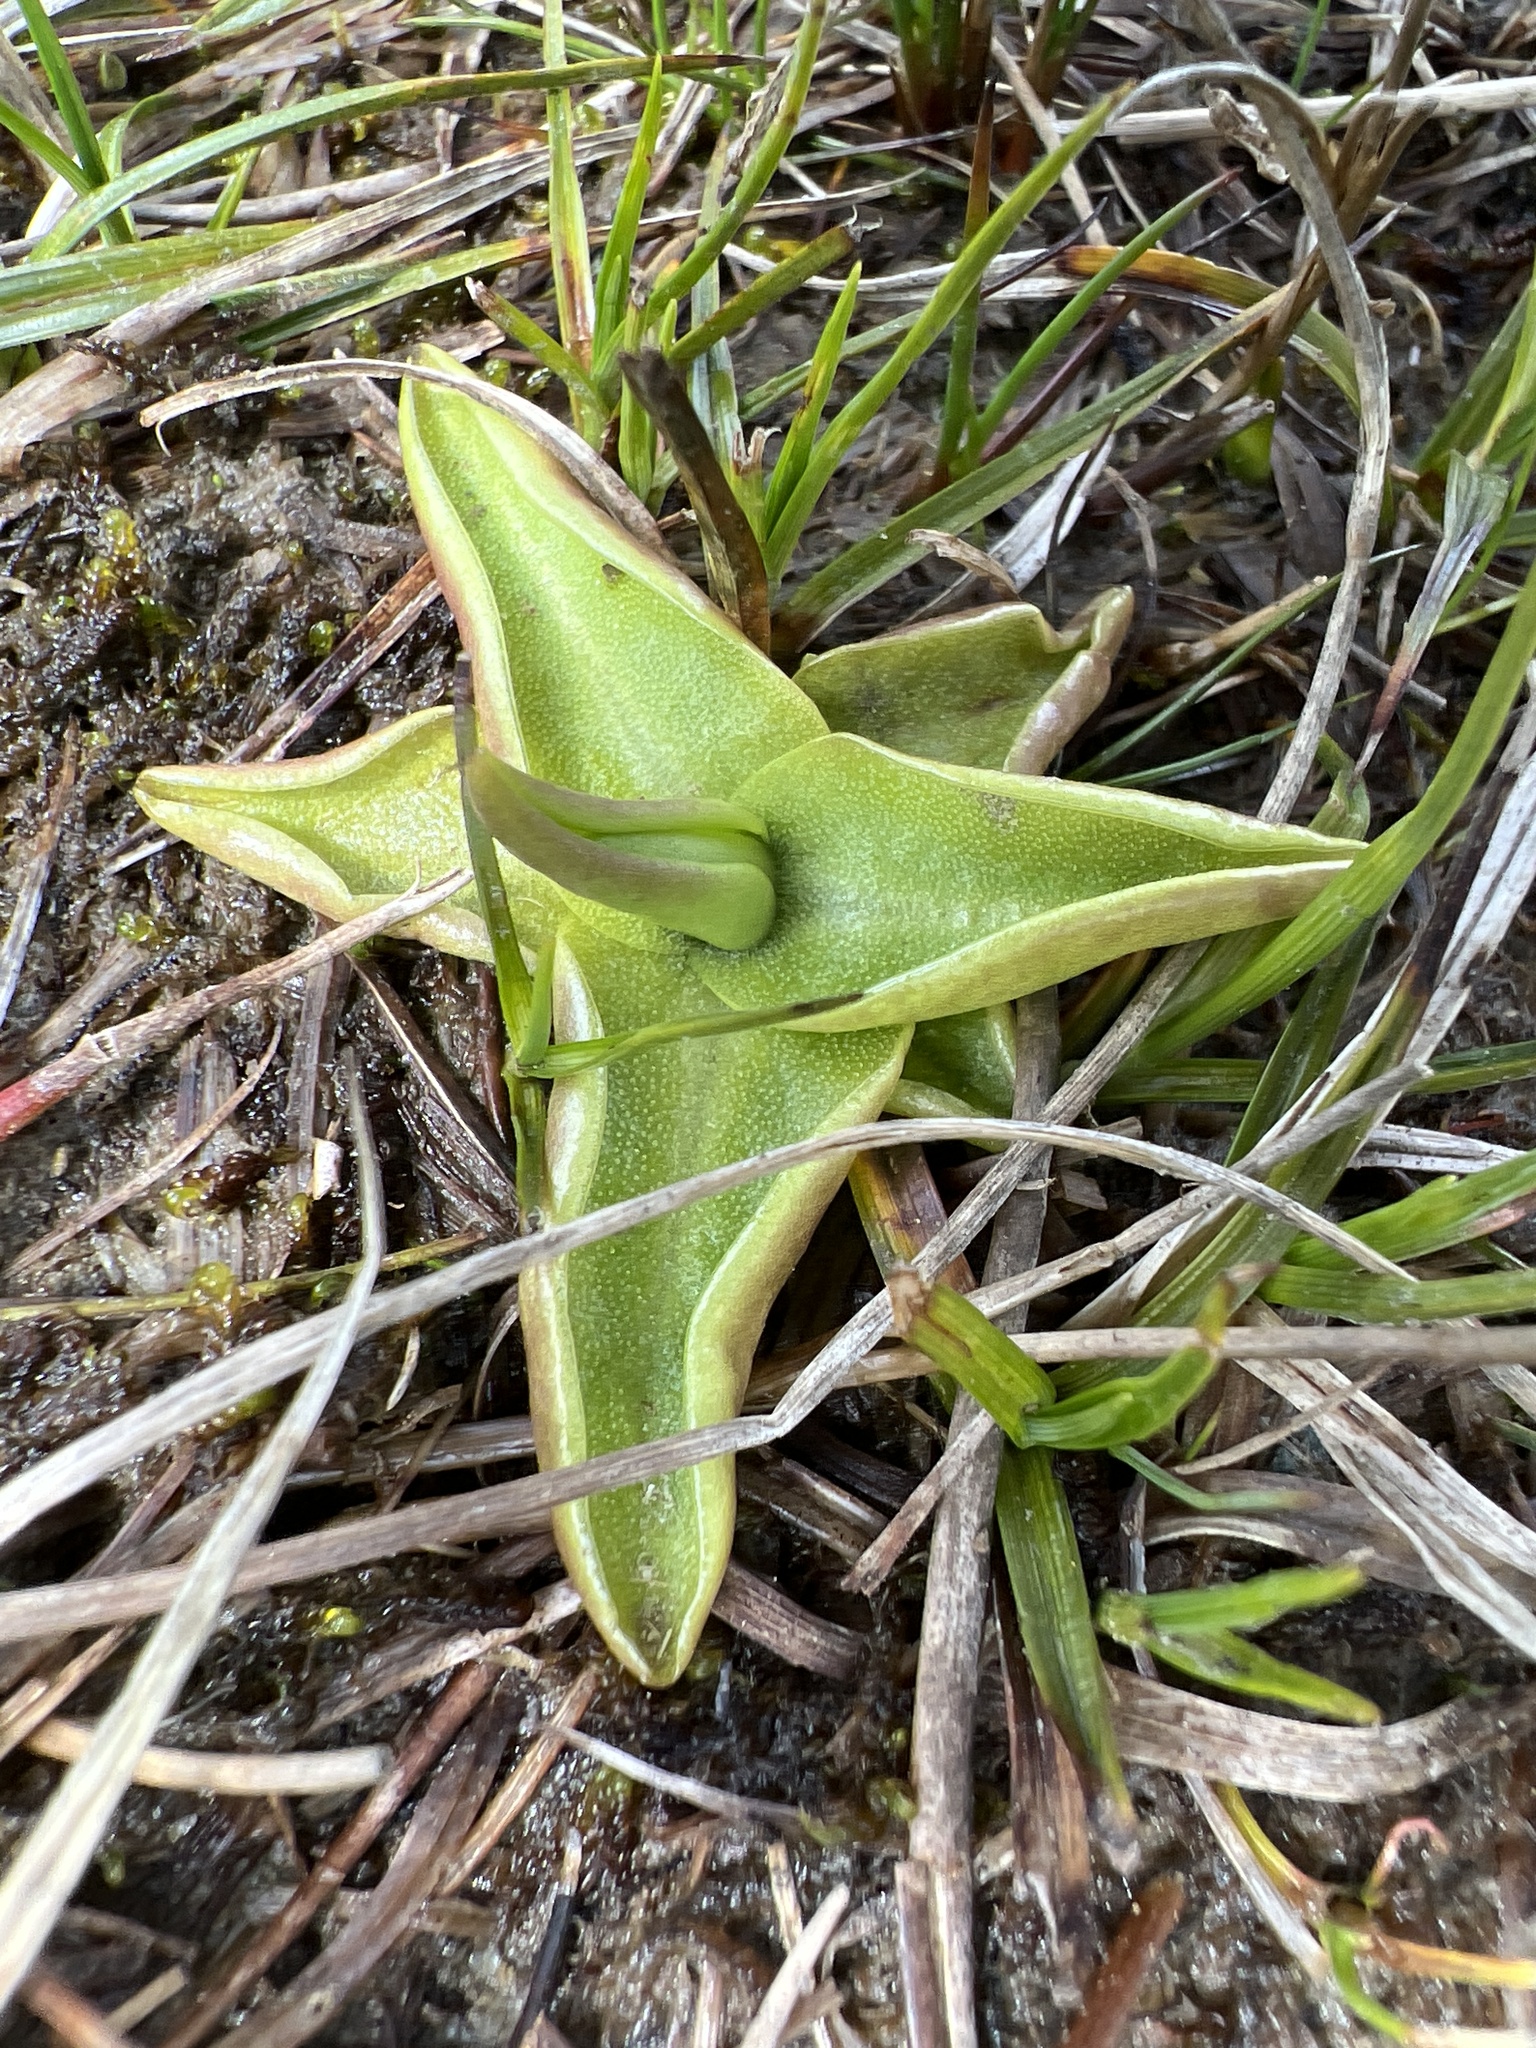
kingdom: Plantae
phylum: Tracheophyta
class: Magnoliopsida
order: Lamiales
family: Lentibulariaceae
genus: Pinguicula
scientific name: Pinguicula vulgaris
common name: Common butterwort
